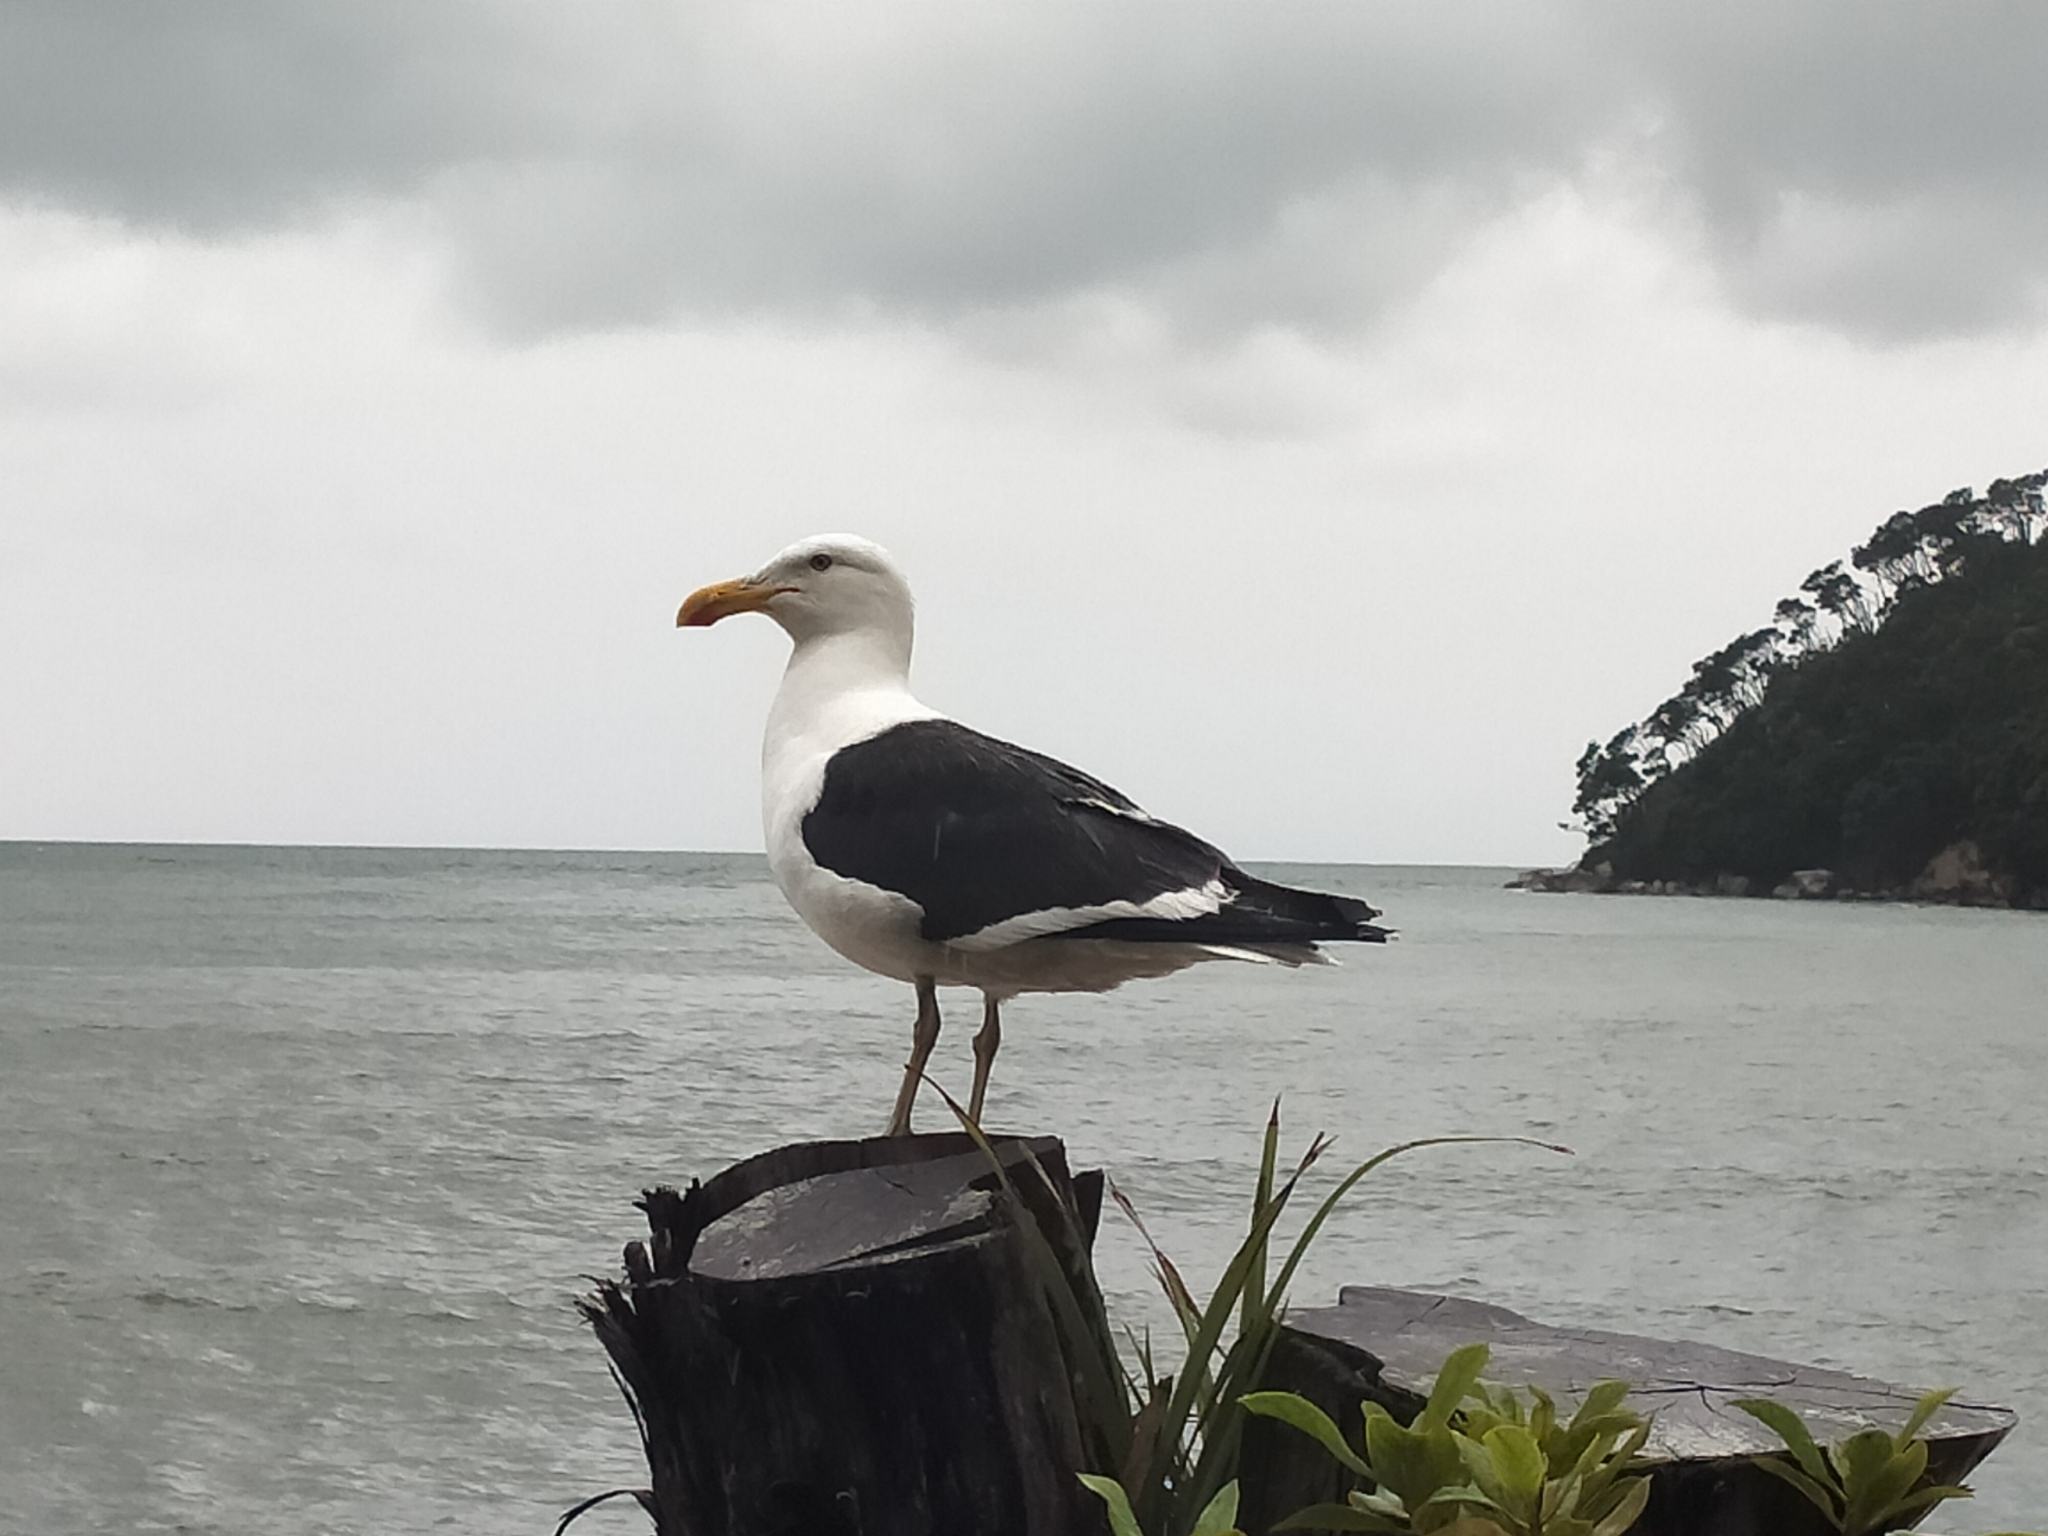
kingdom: Animalia
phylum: Chordata
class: Aves
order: Charadriiformes
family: Laridae
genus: Larus
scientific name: Larus dominicanus
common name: Kelp gull
